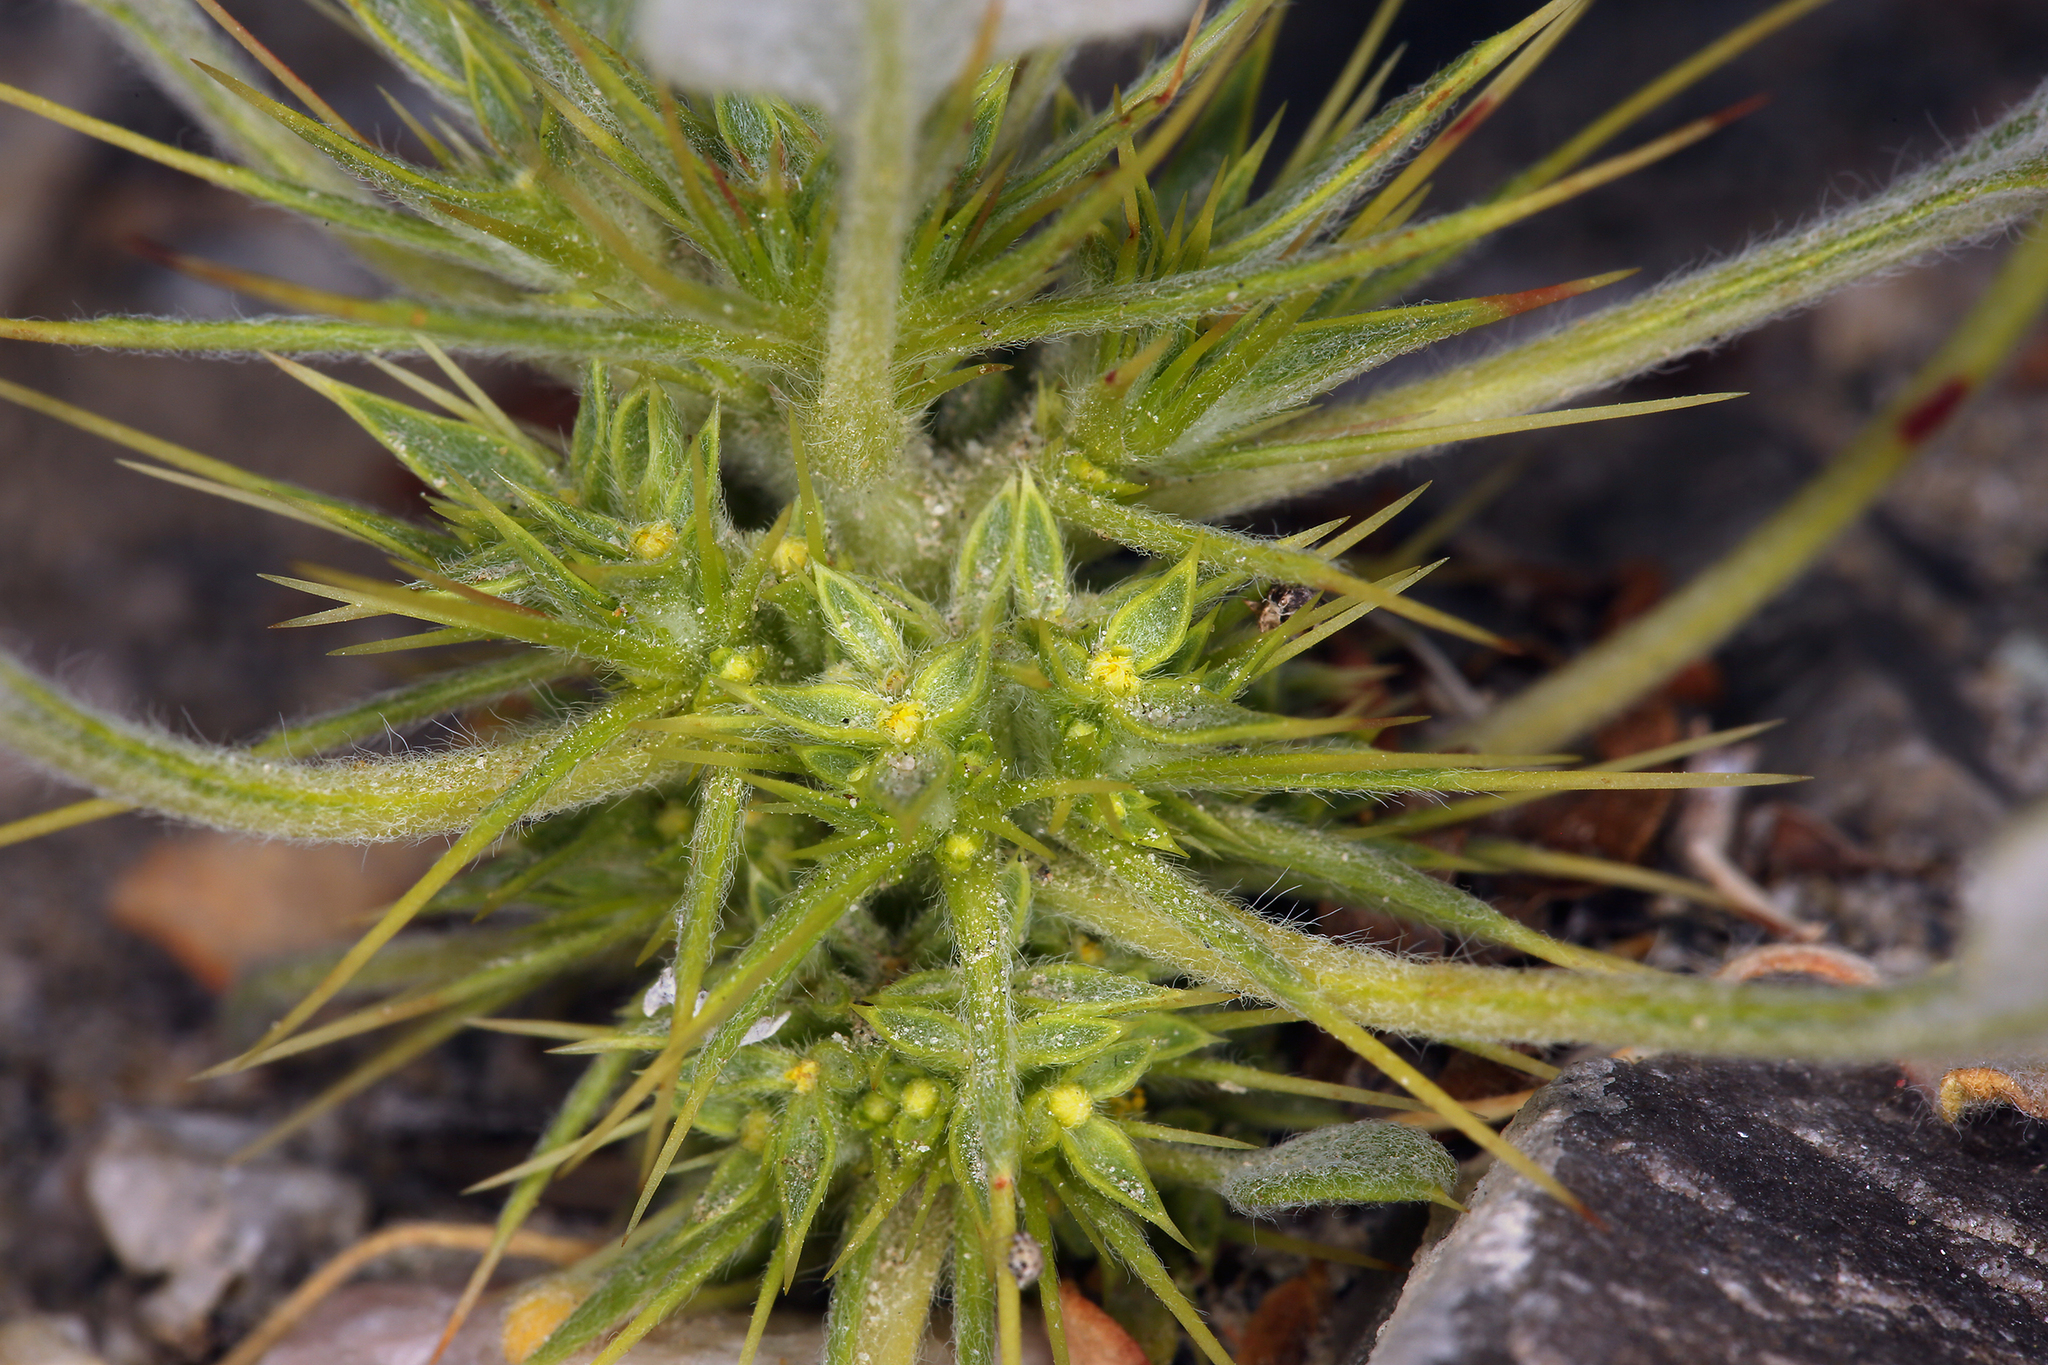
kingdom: Plantae
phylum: Tracheophyta
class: Magnoliopsida
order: Caryophyllales
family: Polygonaceae
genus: Chorizanthe
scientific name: Chorizanthe rigida
